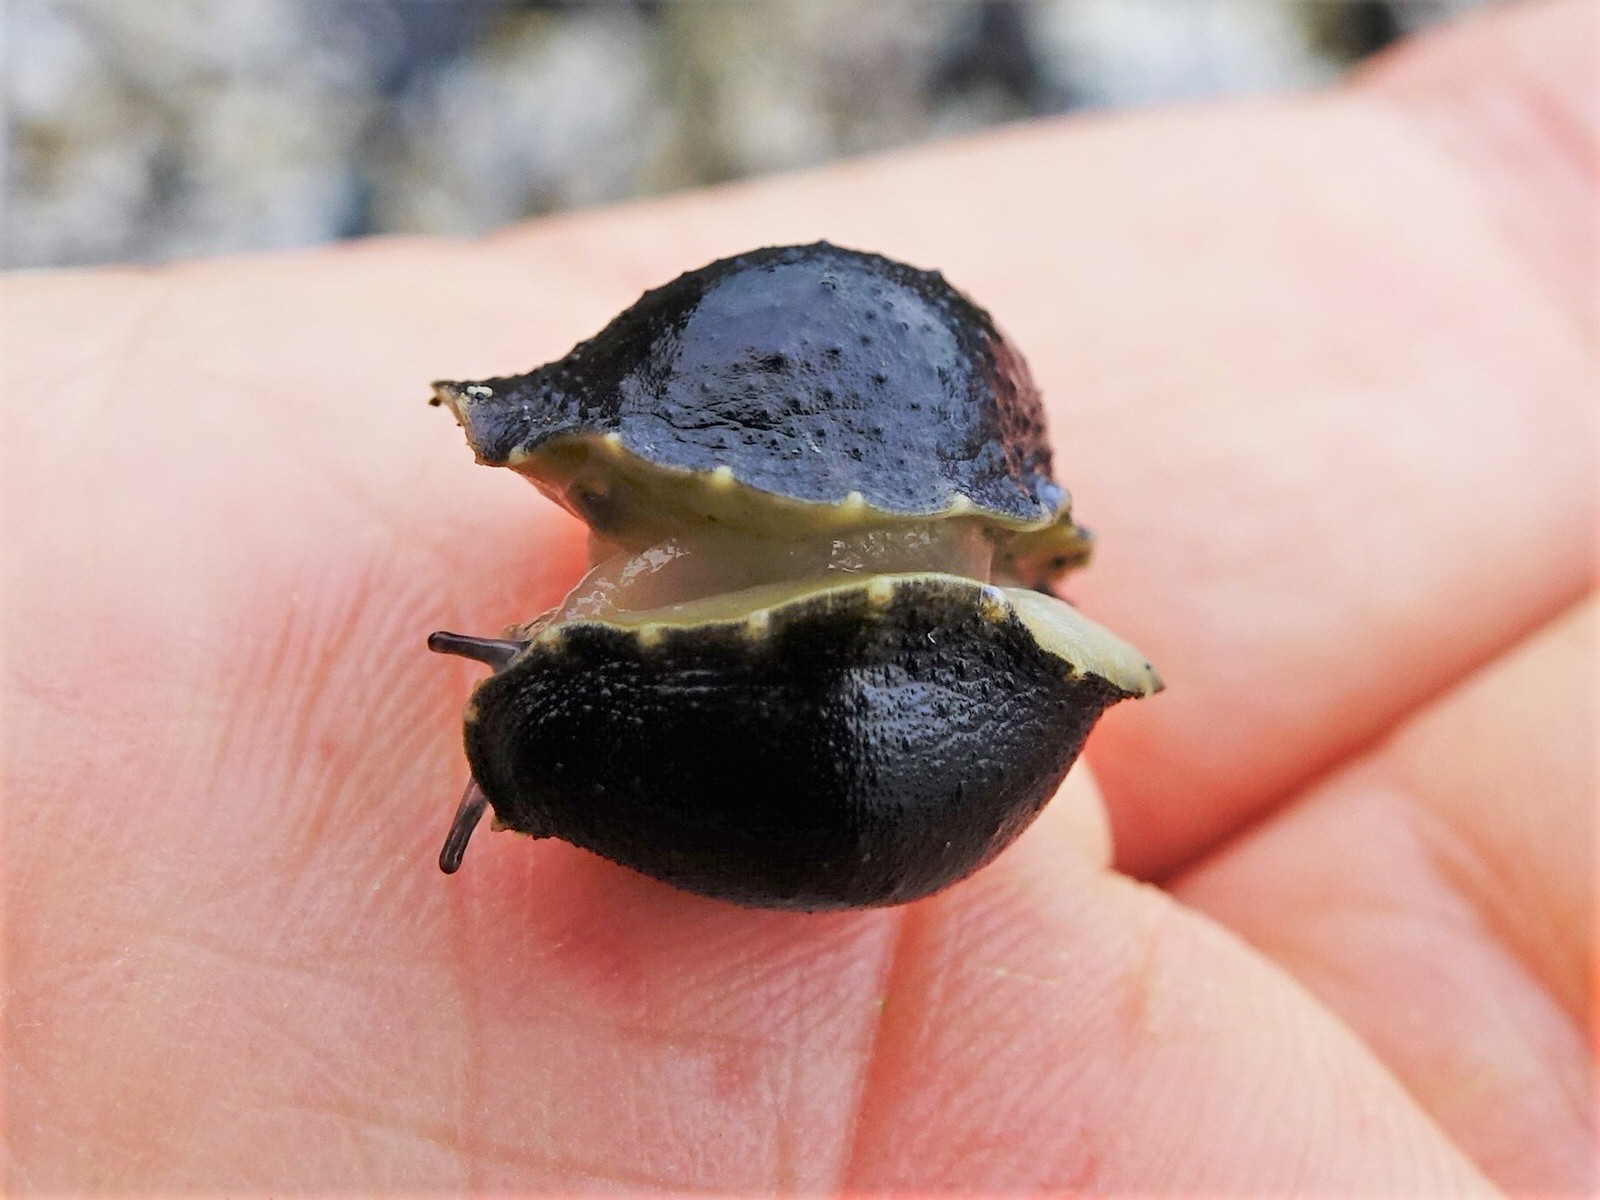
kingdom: Animalia
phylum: Mollusca
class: Gastropoda
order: Systellommatophora
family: Onchidiidae
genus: Onchidella
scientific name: Onchidella nigricans
